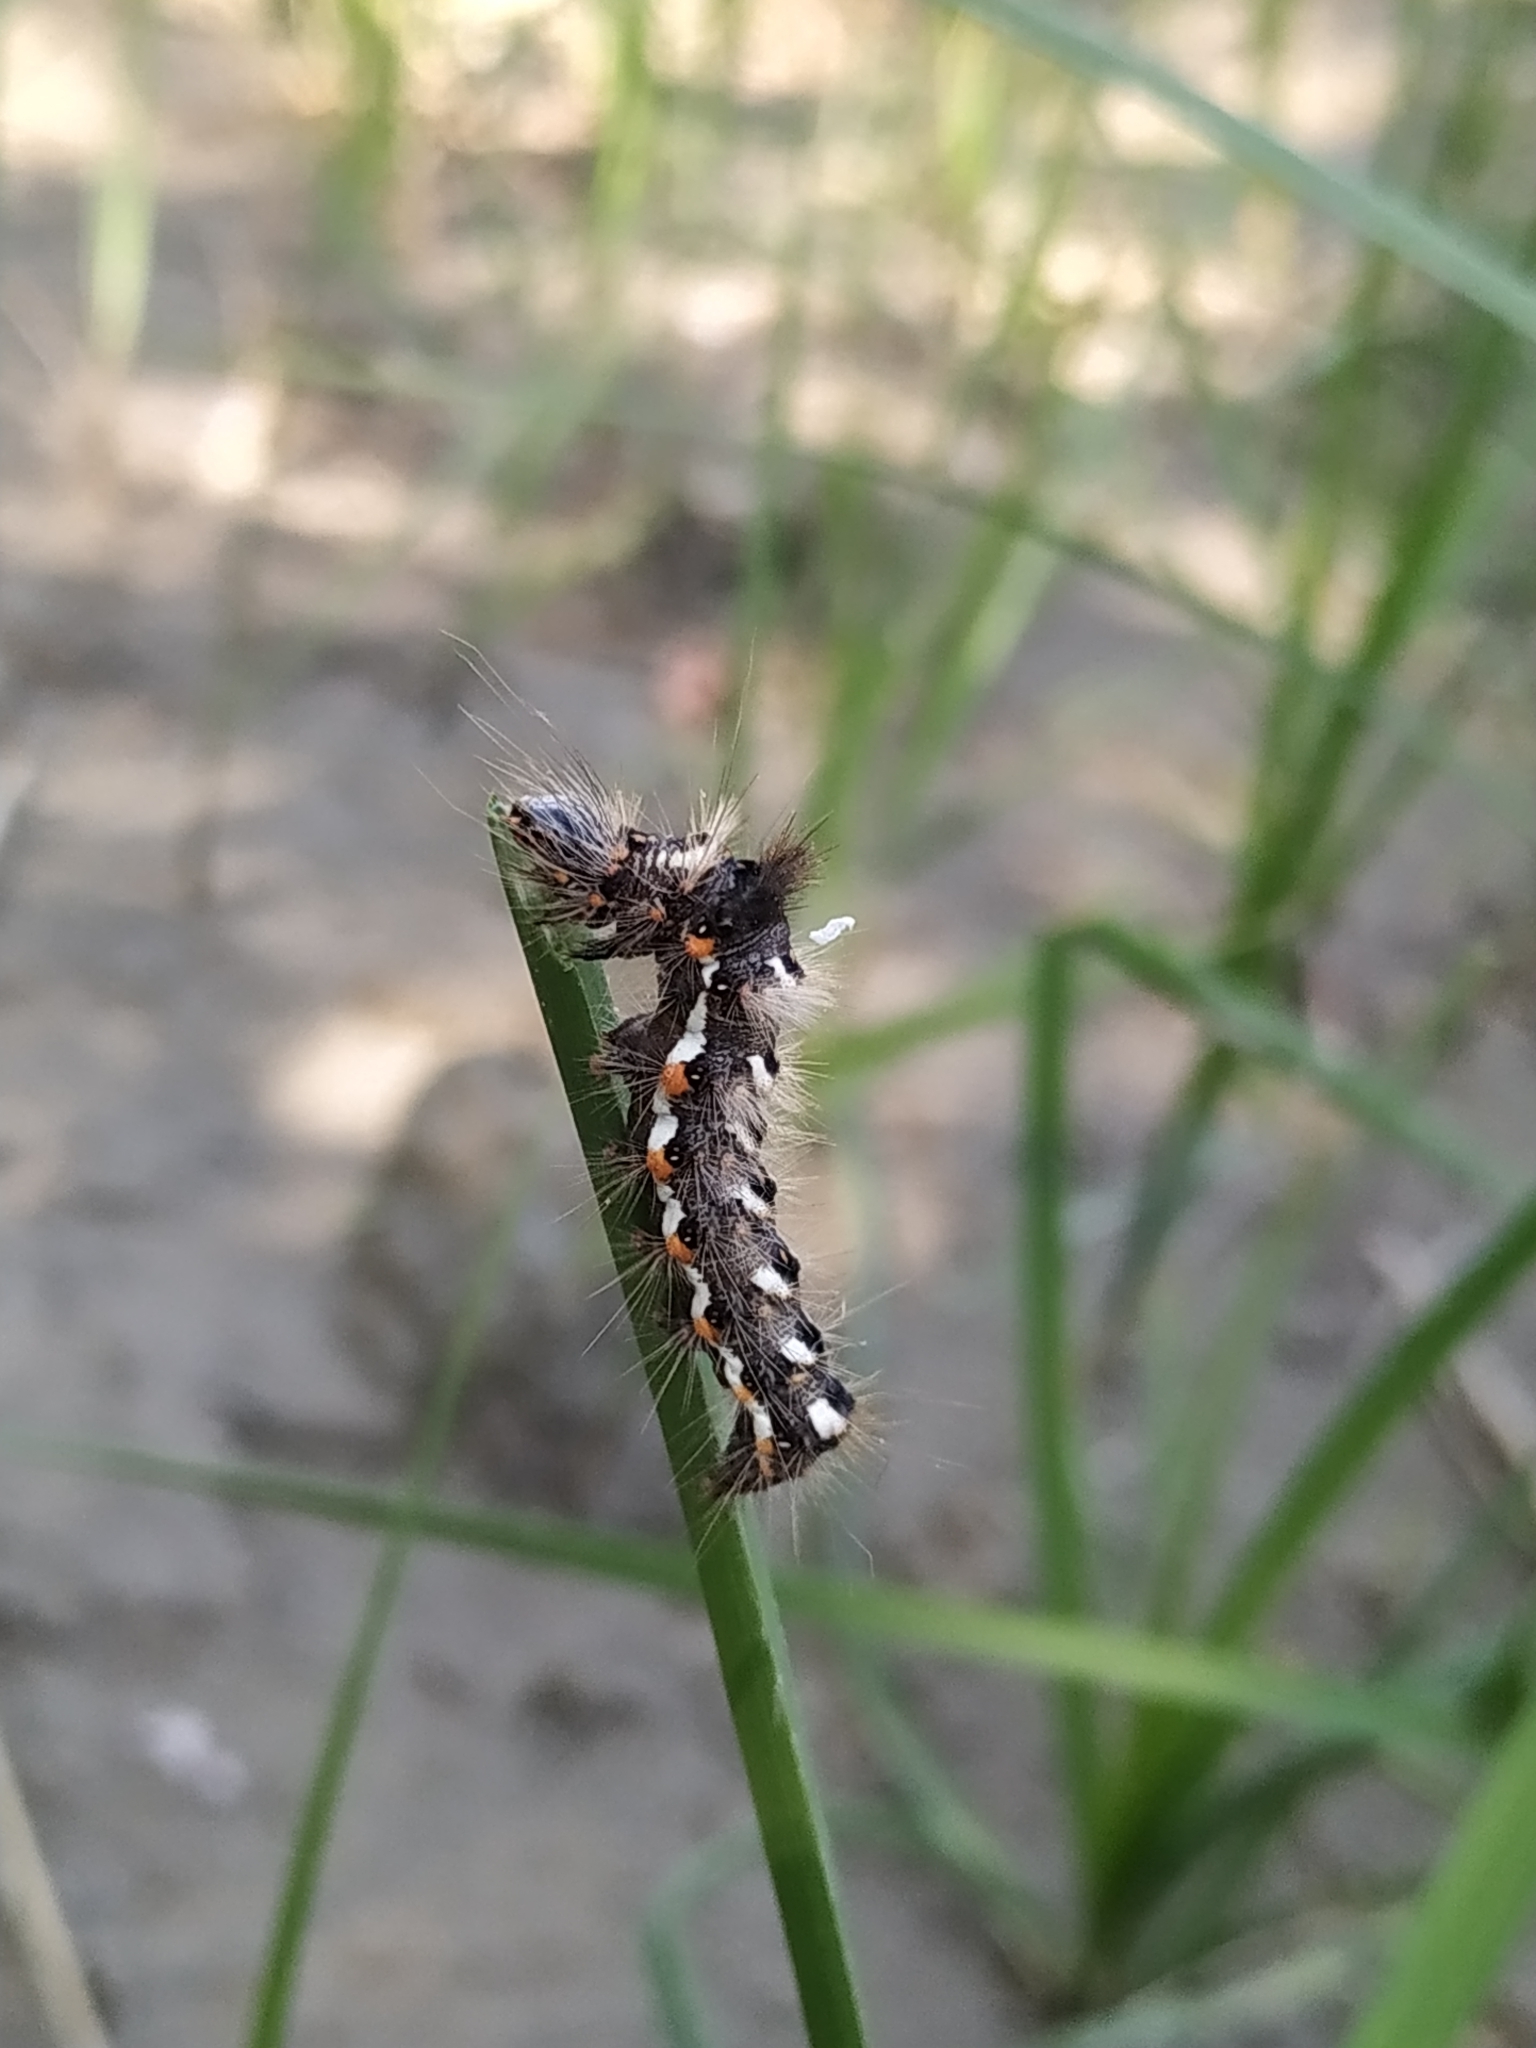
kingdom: Animalia
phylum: Arthropoda
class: Insecta
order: Lepidoptera
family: Noctuidae
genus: Acronicta
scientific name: Acronicta rumicis
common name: Knot grass
